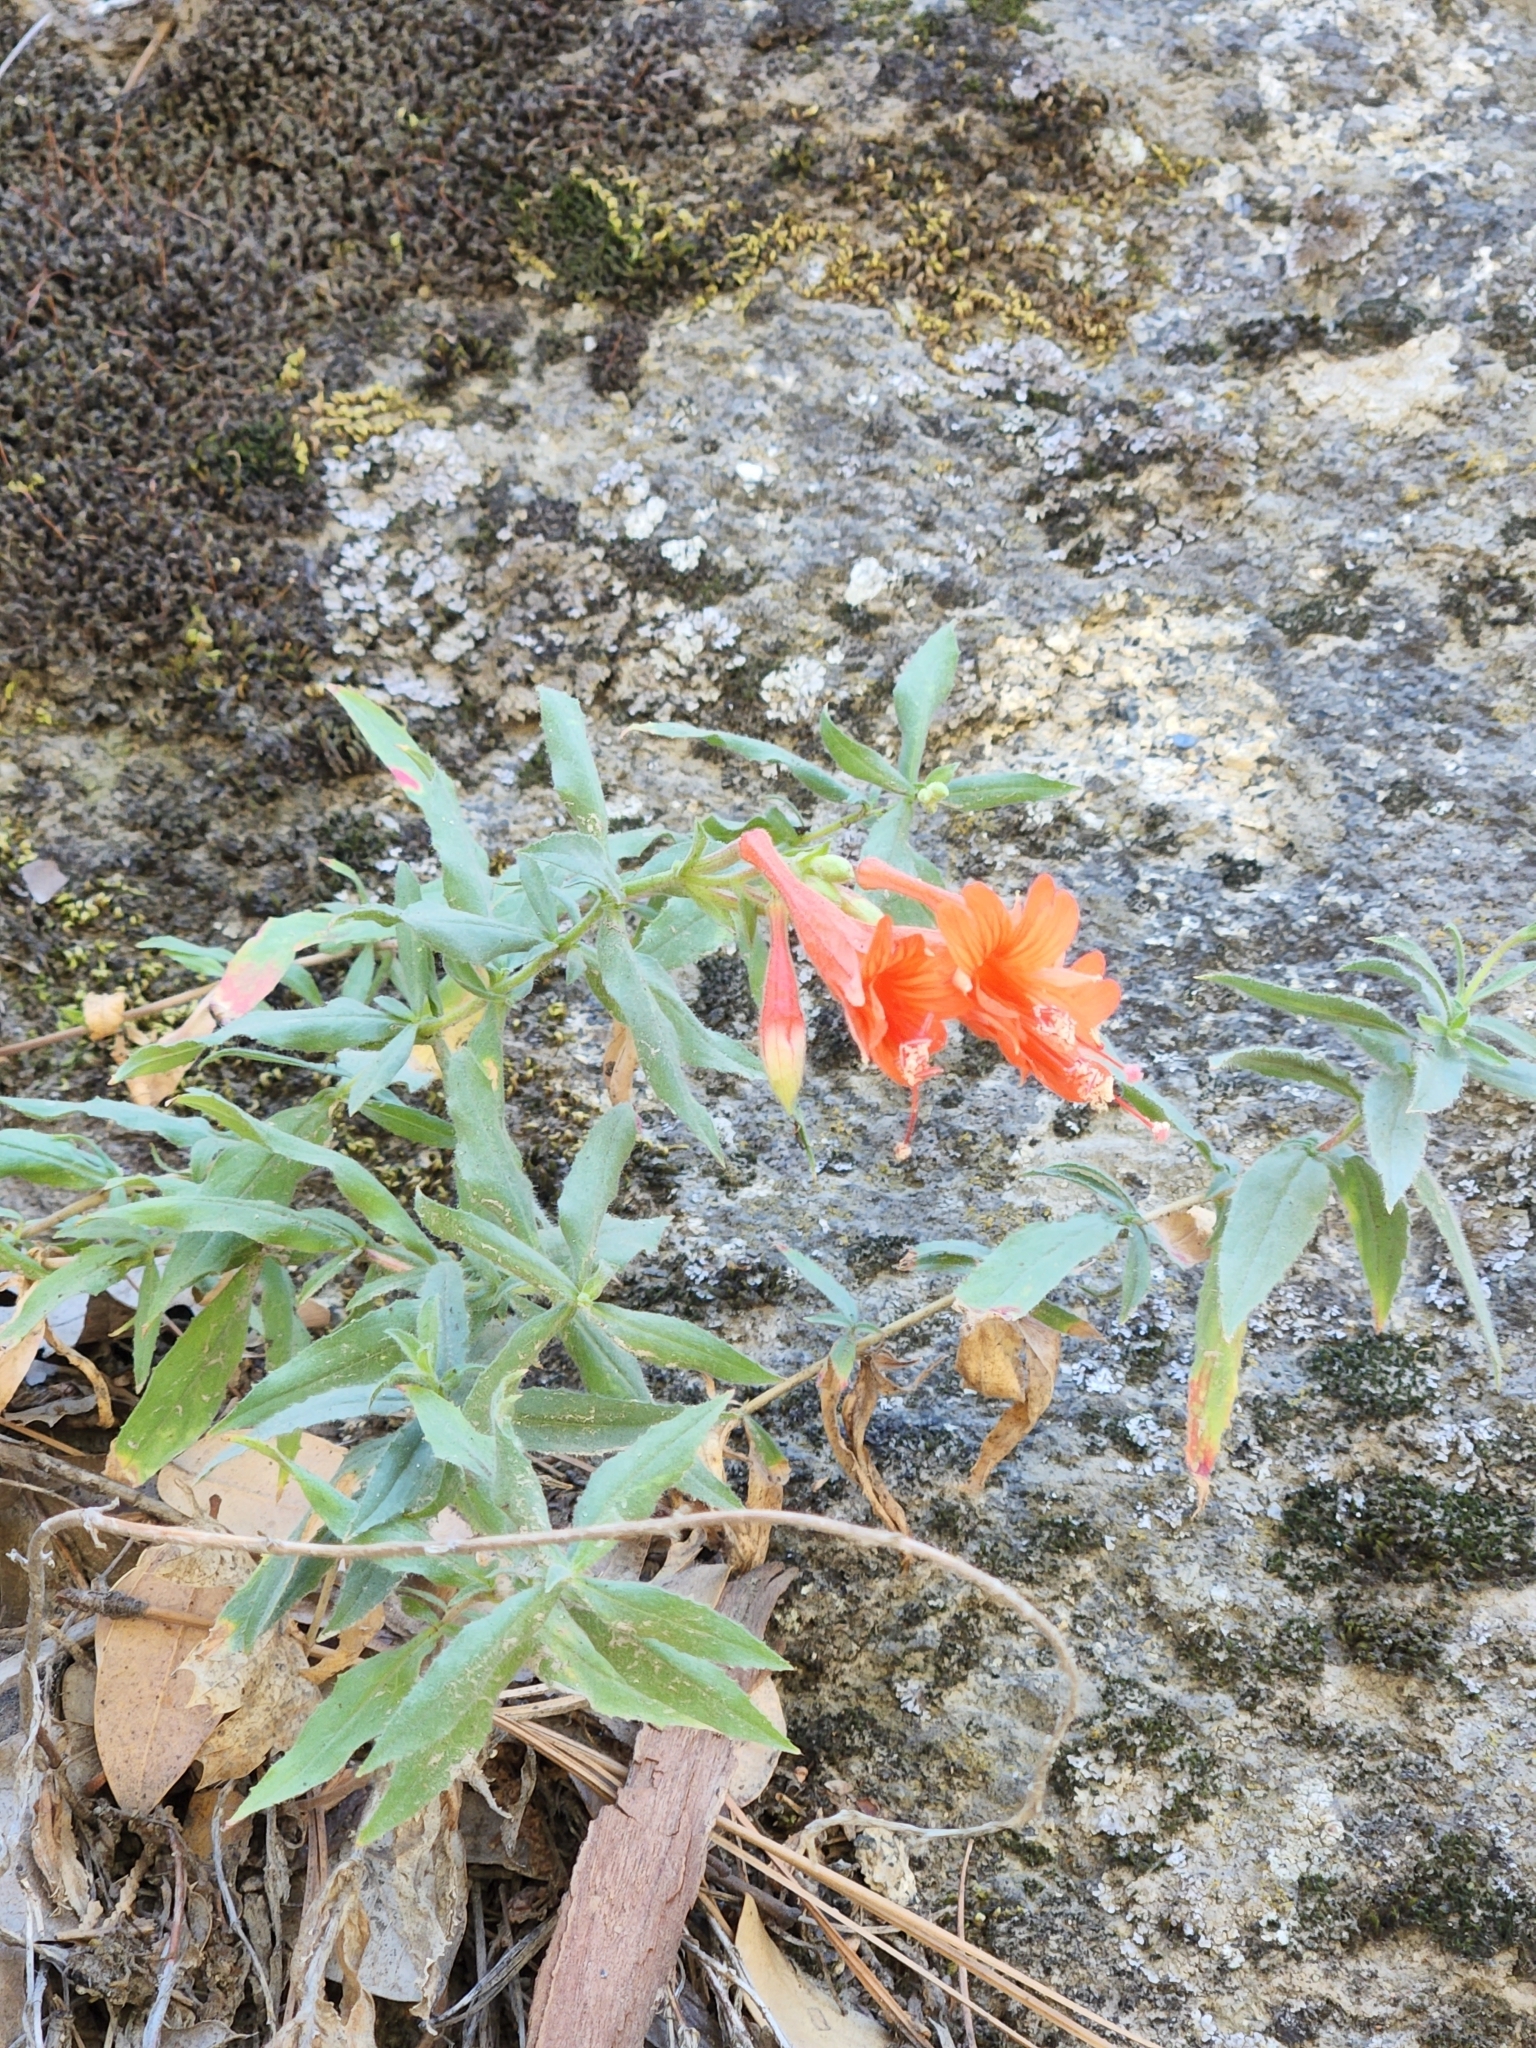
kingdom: Plantae
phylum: Tracheophyta
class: Magnoliopsida
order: Myrtales
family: Onagraceae
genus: Epilobium
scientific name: Epilobium canum
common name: California-fuchsia
